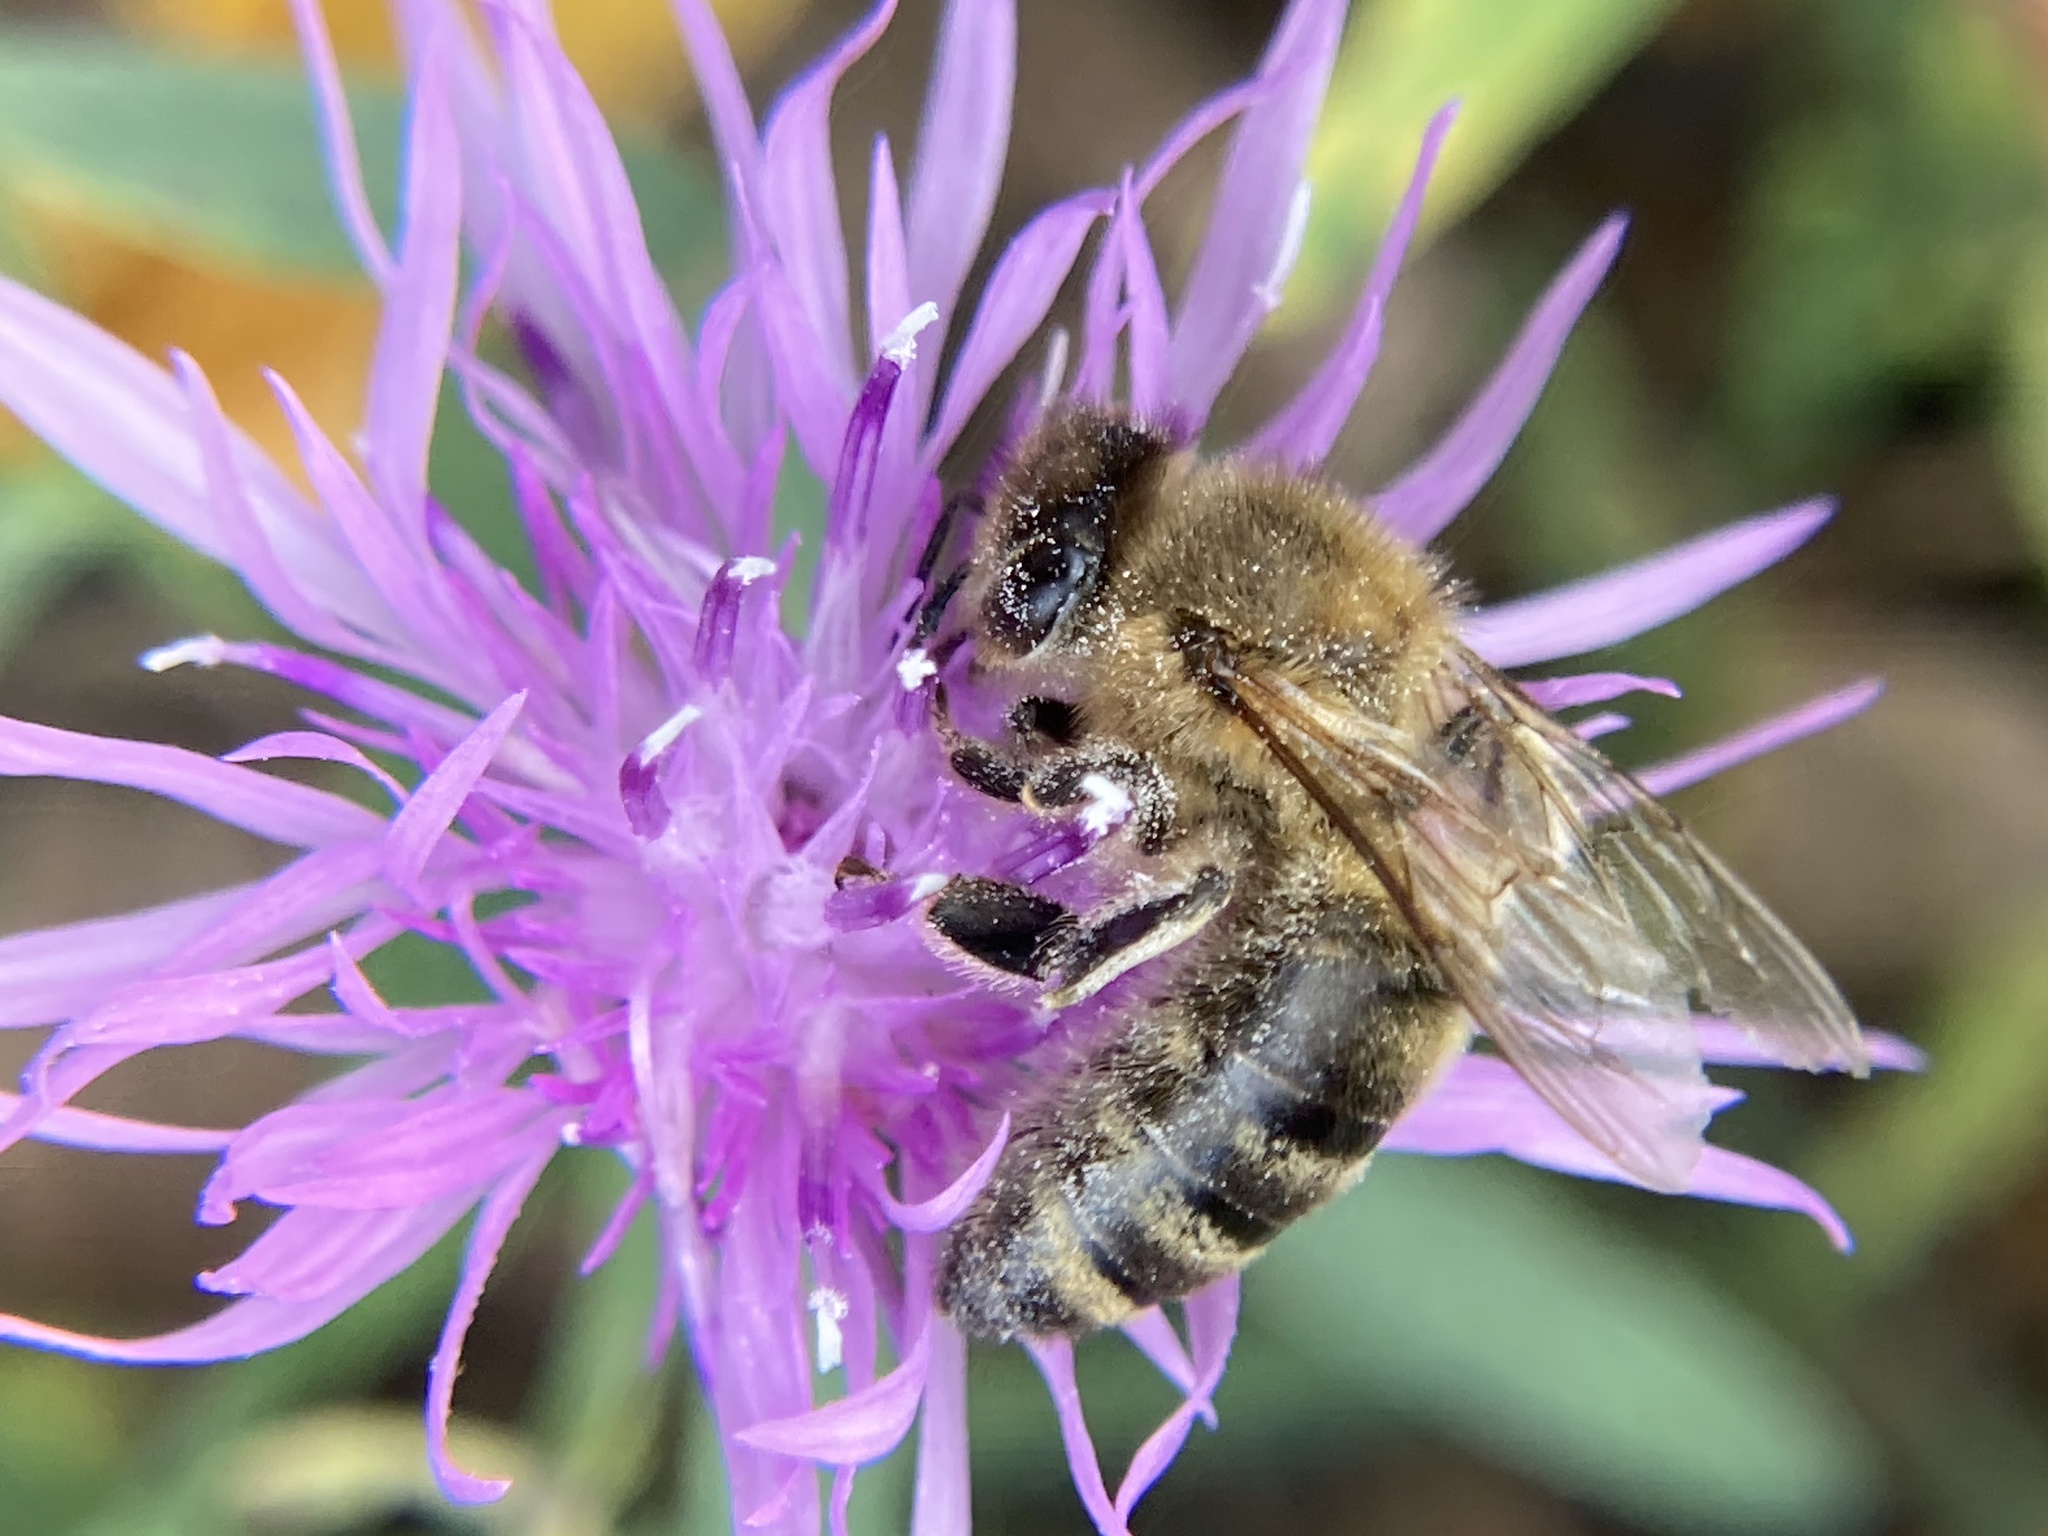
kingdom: Animalia
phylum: Arthropoda
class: Insecta
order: Hymenoptera
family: Apidae
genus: Apis
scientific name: Apis mellifera
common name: Honey bee
